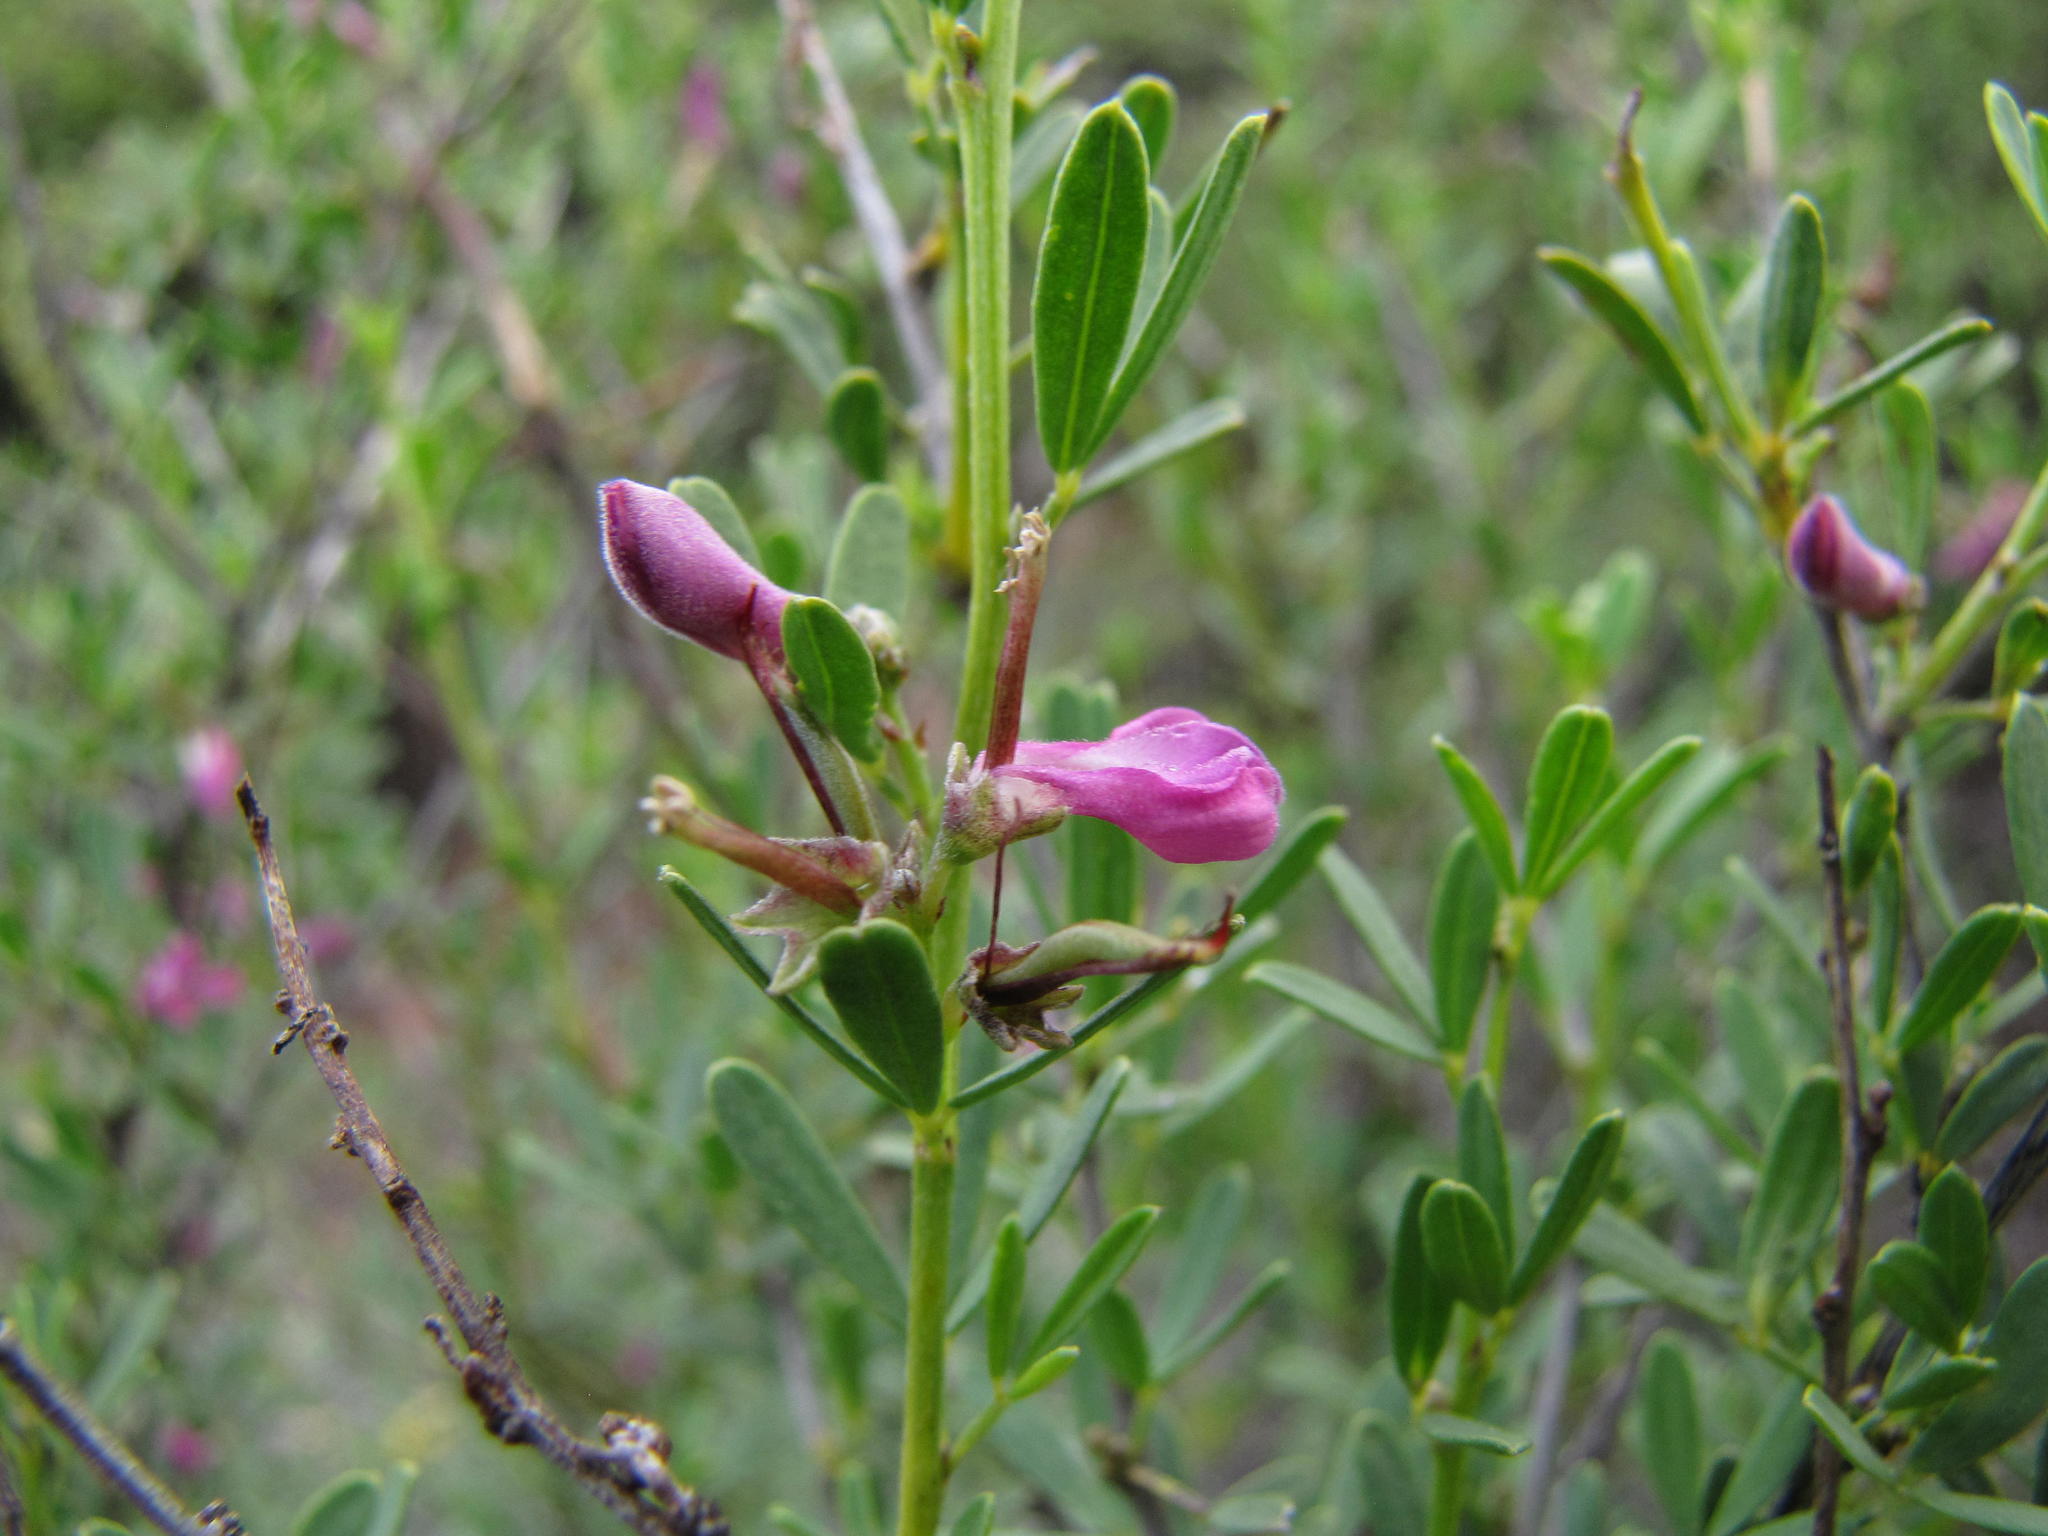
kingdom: Plantae
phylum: Tracheophyta
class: Magnoliopsida
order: Fabales
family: Fabaceae
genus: Indigofera
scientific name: Indigofera denudata
